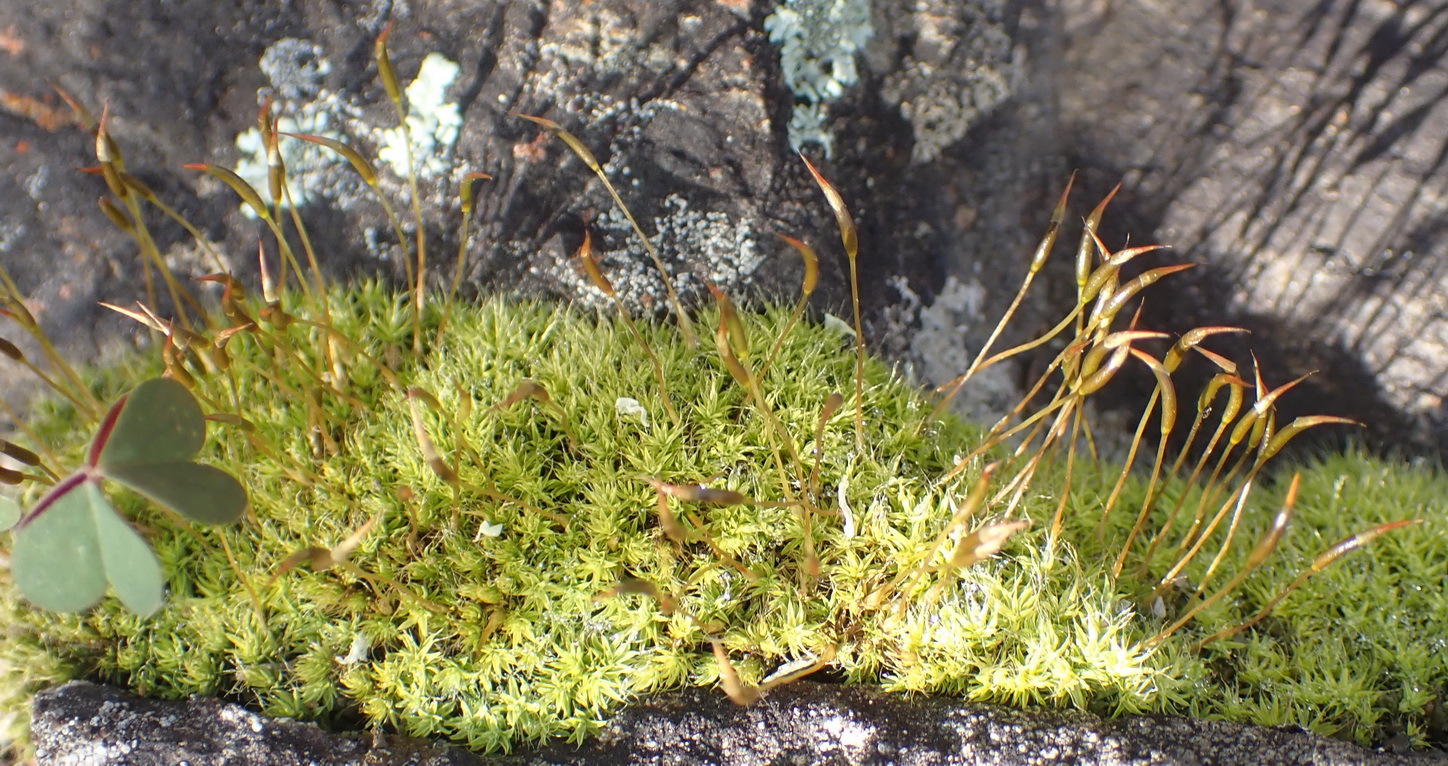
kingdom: Plantae
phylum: Bryophyta
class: Bryopsida
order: Pottiales
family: Pottiaceae
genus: Pseudocrossidium
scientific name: Pseudocrossidium crinitum
